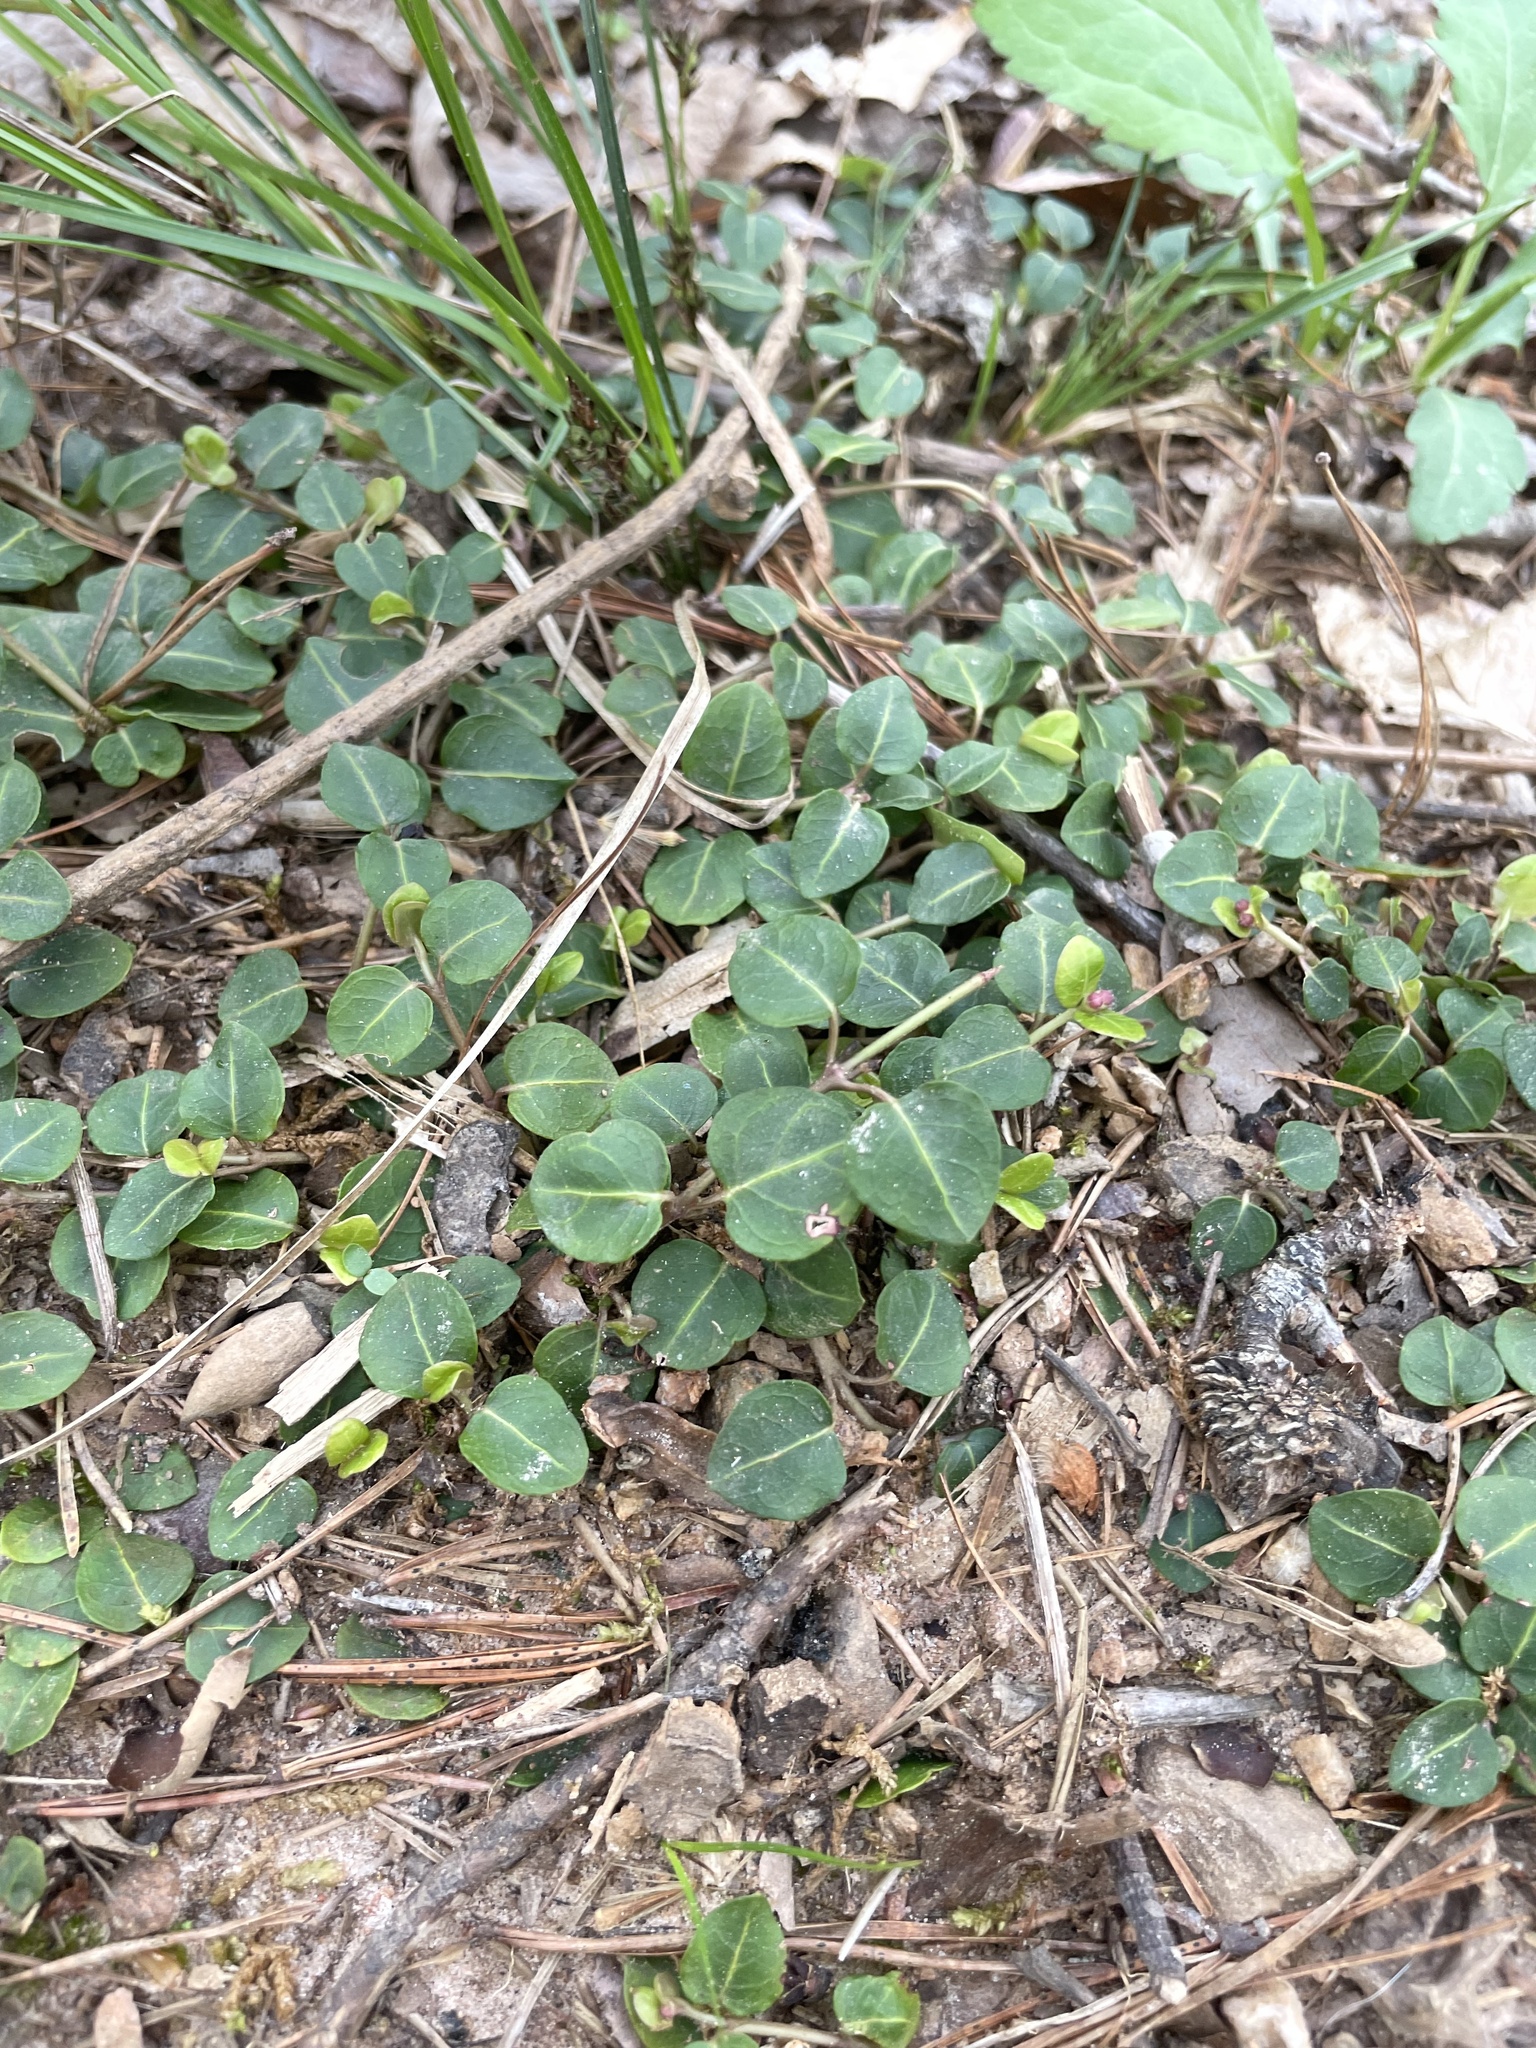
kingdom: Plantae
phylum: Tracheophyta
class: Magnoliopsida
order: Gentianales
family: Rubiaceae
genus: Mitchella
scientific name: Mitchella repens
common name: Partridge-berry
